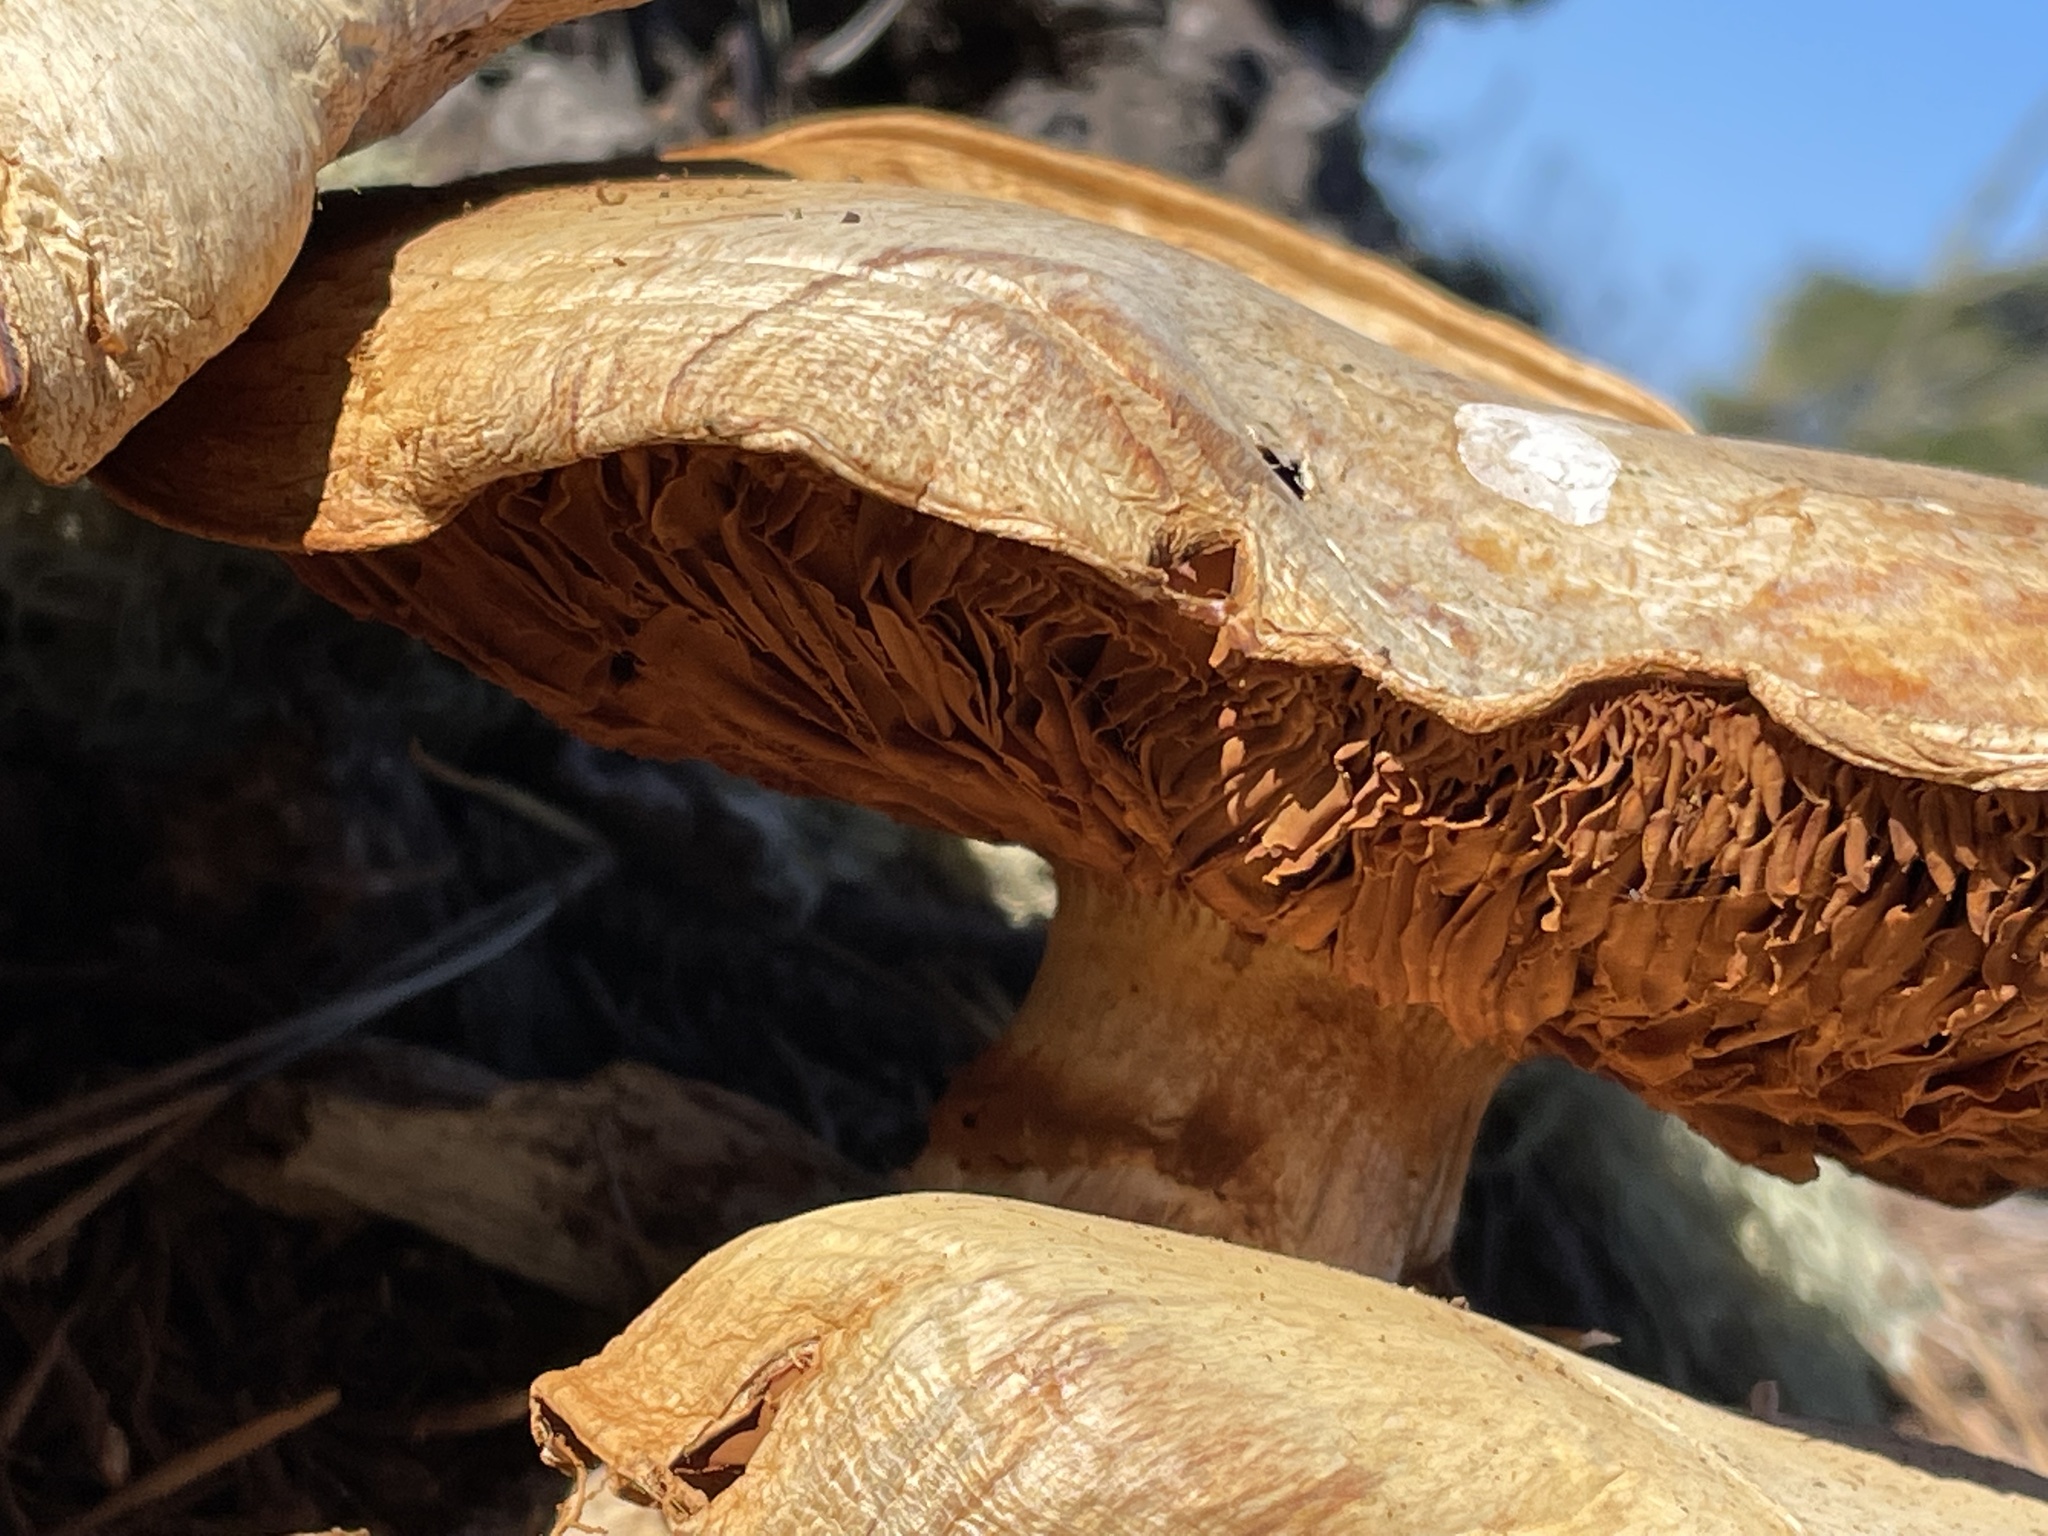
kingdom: Fungi
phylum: Basidiomycota
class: Agaricomycetes
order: Agaricales
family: Hymenogastraceae
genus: Gymnopilus
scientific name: Gymnopilus ventricosus
